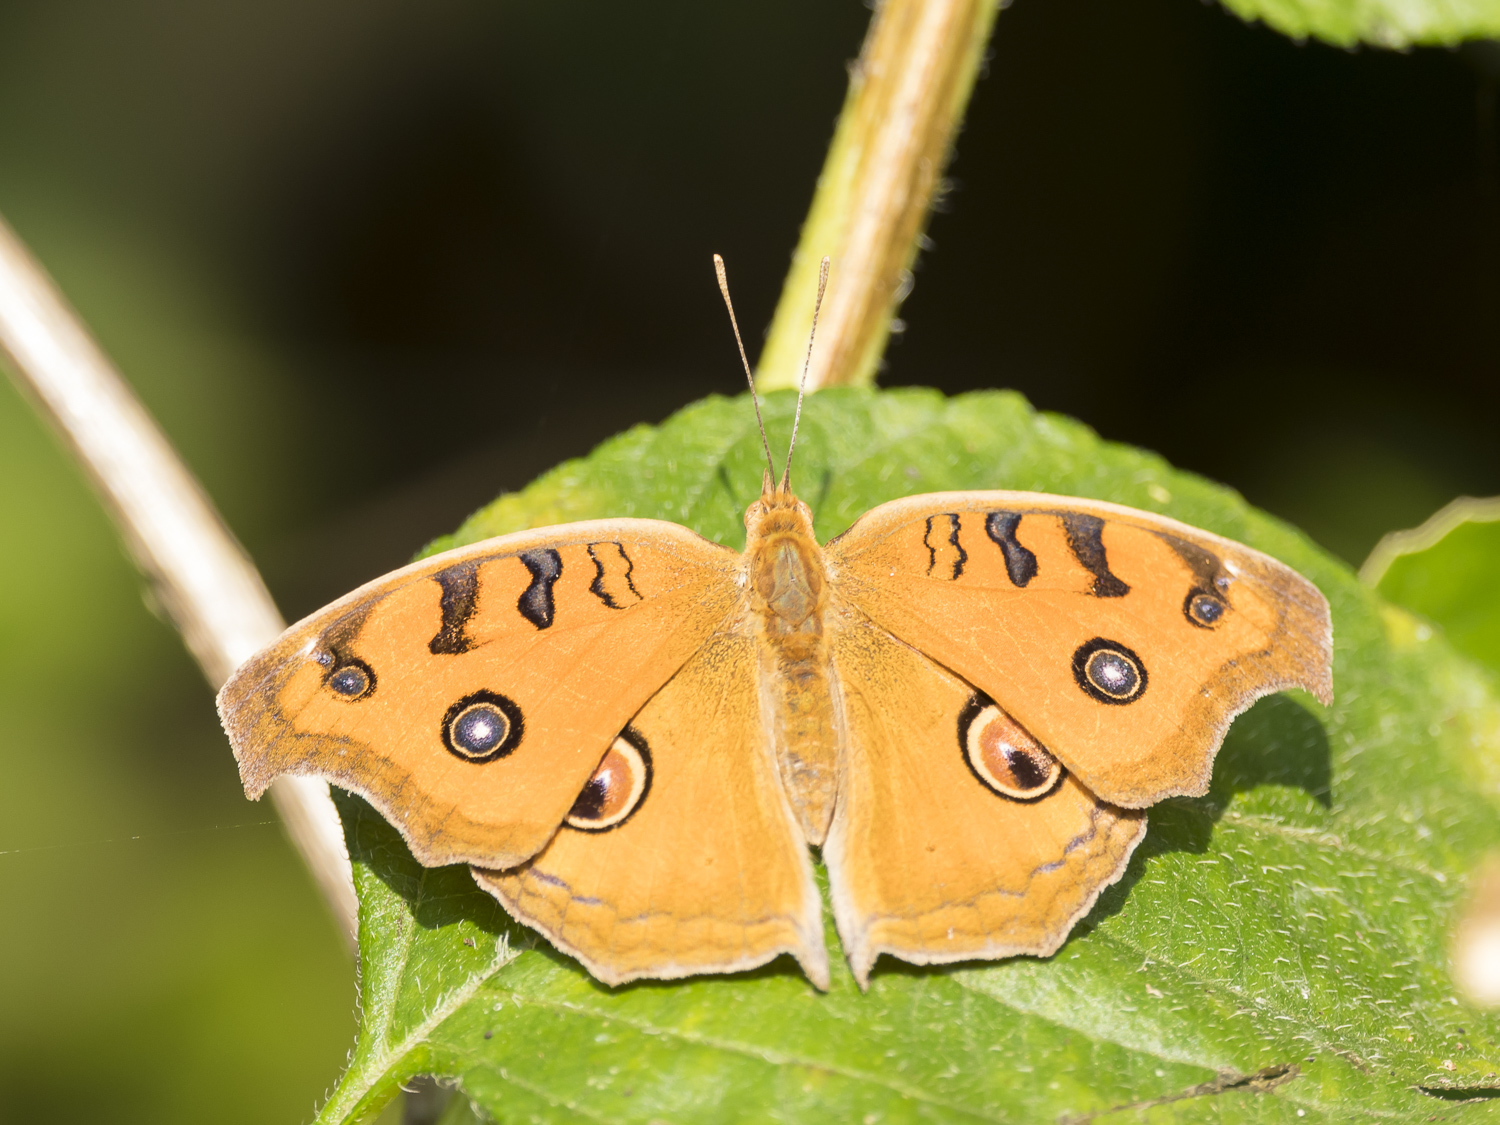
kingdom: Animalia
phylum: Arthropoda
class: Insecta
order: Lepidoptera
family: Nymphalidae
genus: Junonia
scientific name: Junonia almana
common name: Peacock pansy
